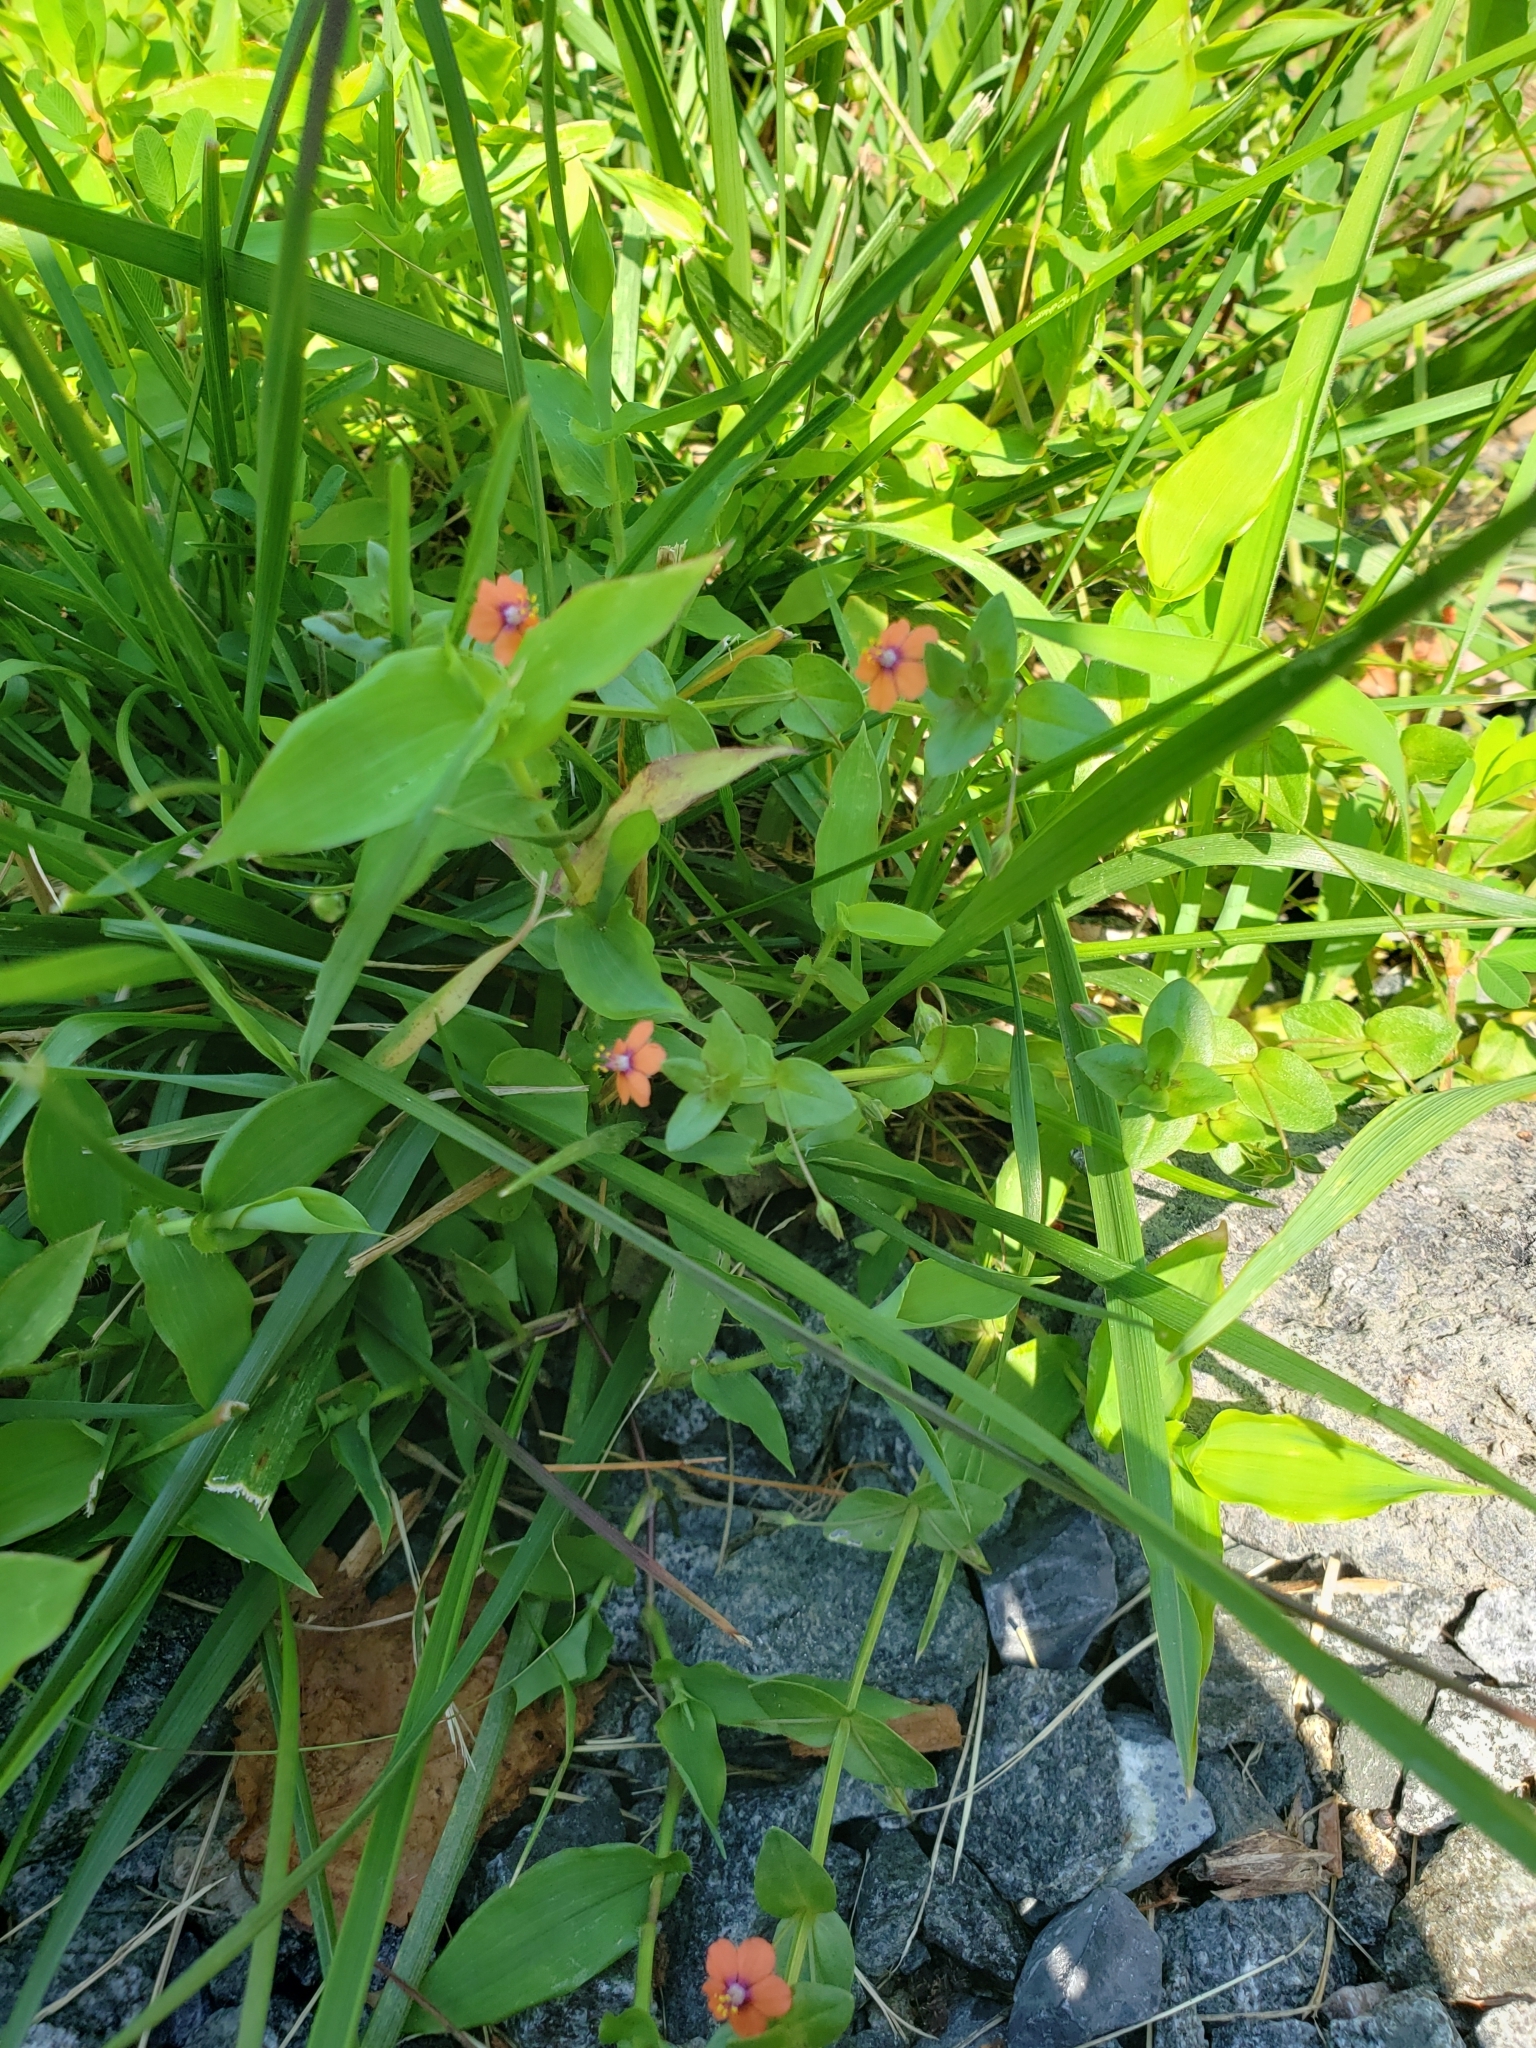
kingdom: Plantae
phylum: Tracheophyta
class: Magnoliopsida
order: Ericales
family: Primulaceae
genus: Lysimachia
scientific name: Lysimachia arvensis
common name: Scarlet pimpernel
